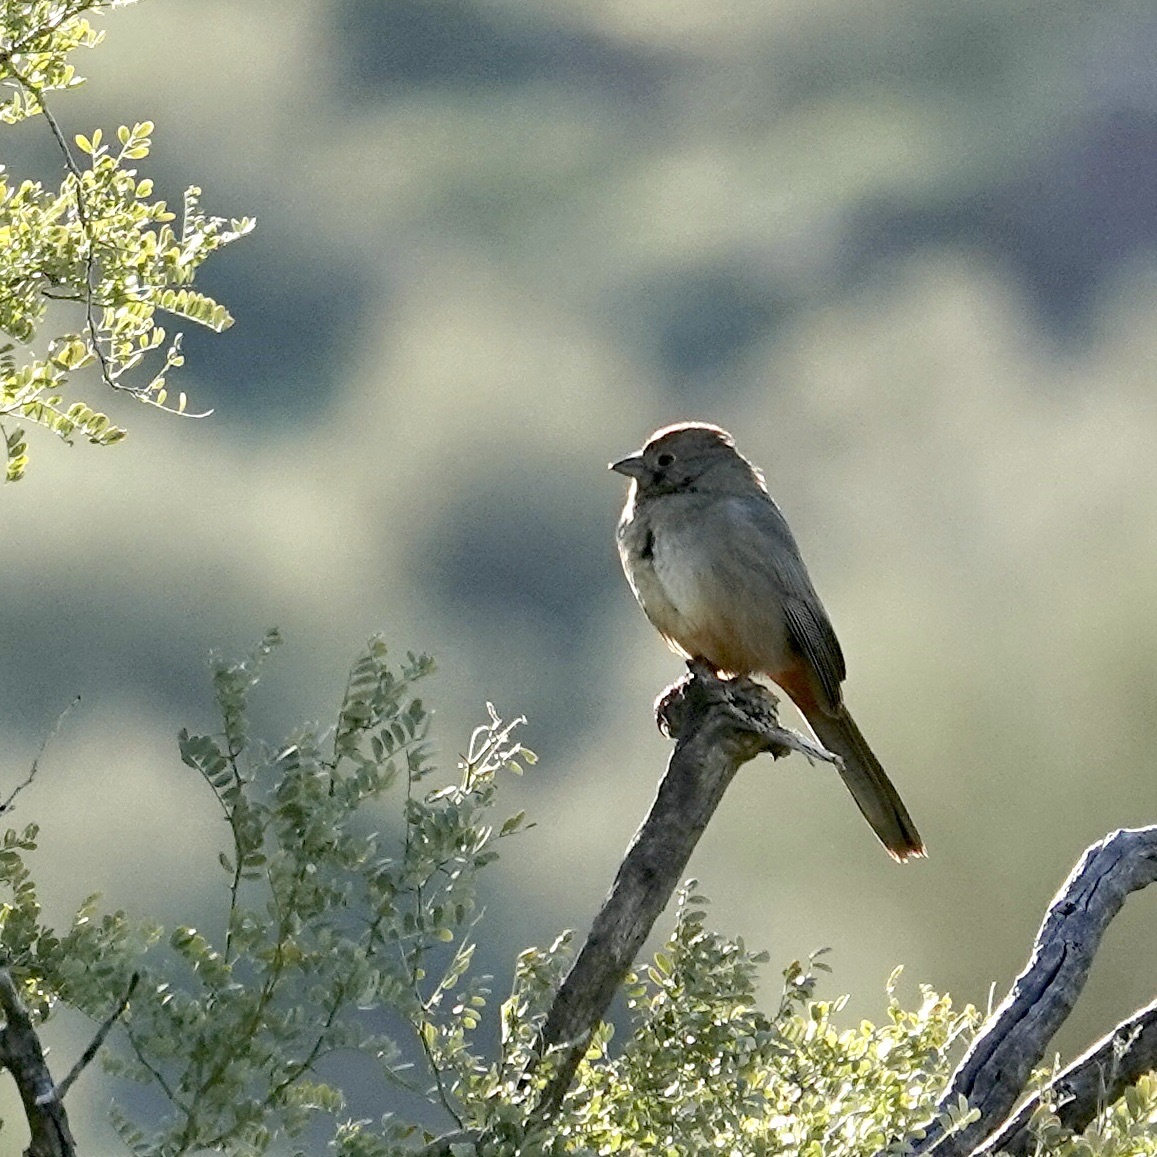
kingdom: Animalia
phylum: Chordata
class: Aves
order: Passeriformes
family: Passerellidae
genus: Melozone
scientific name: Melozone fusca
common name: Canyon towhee
